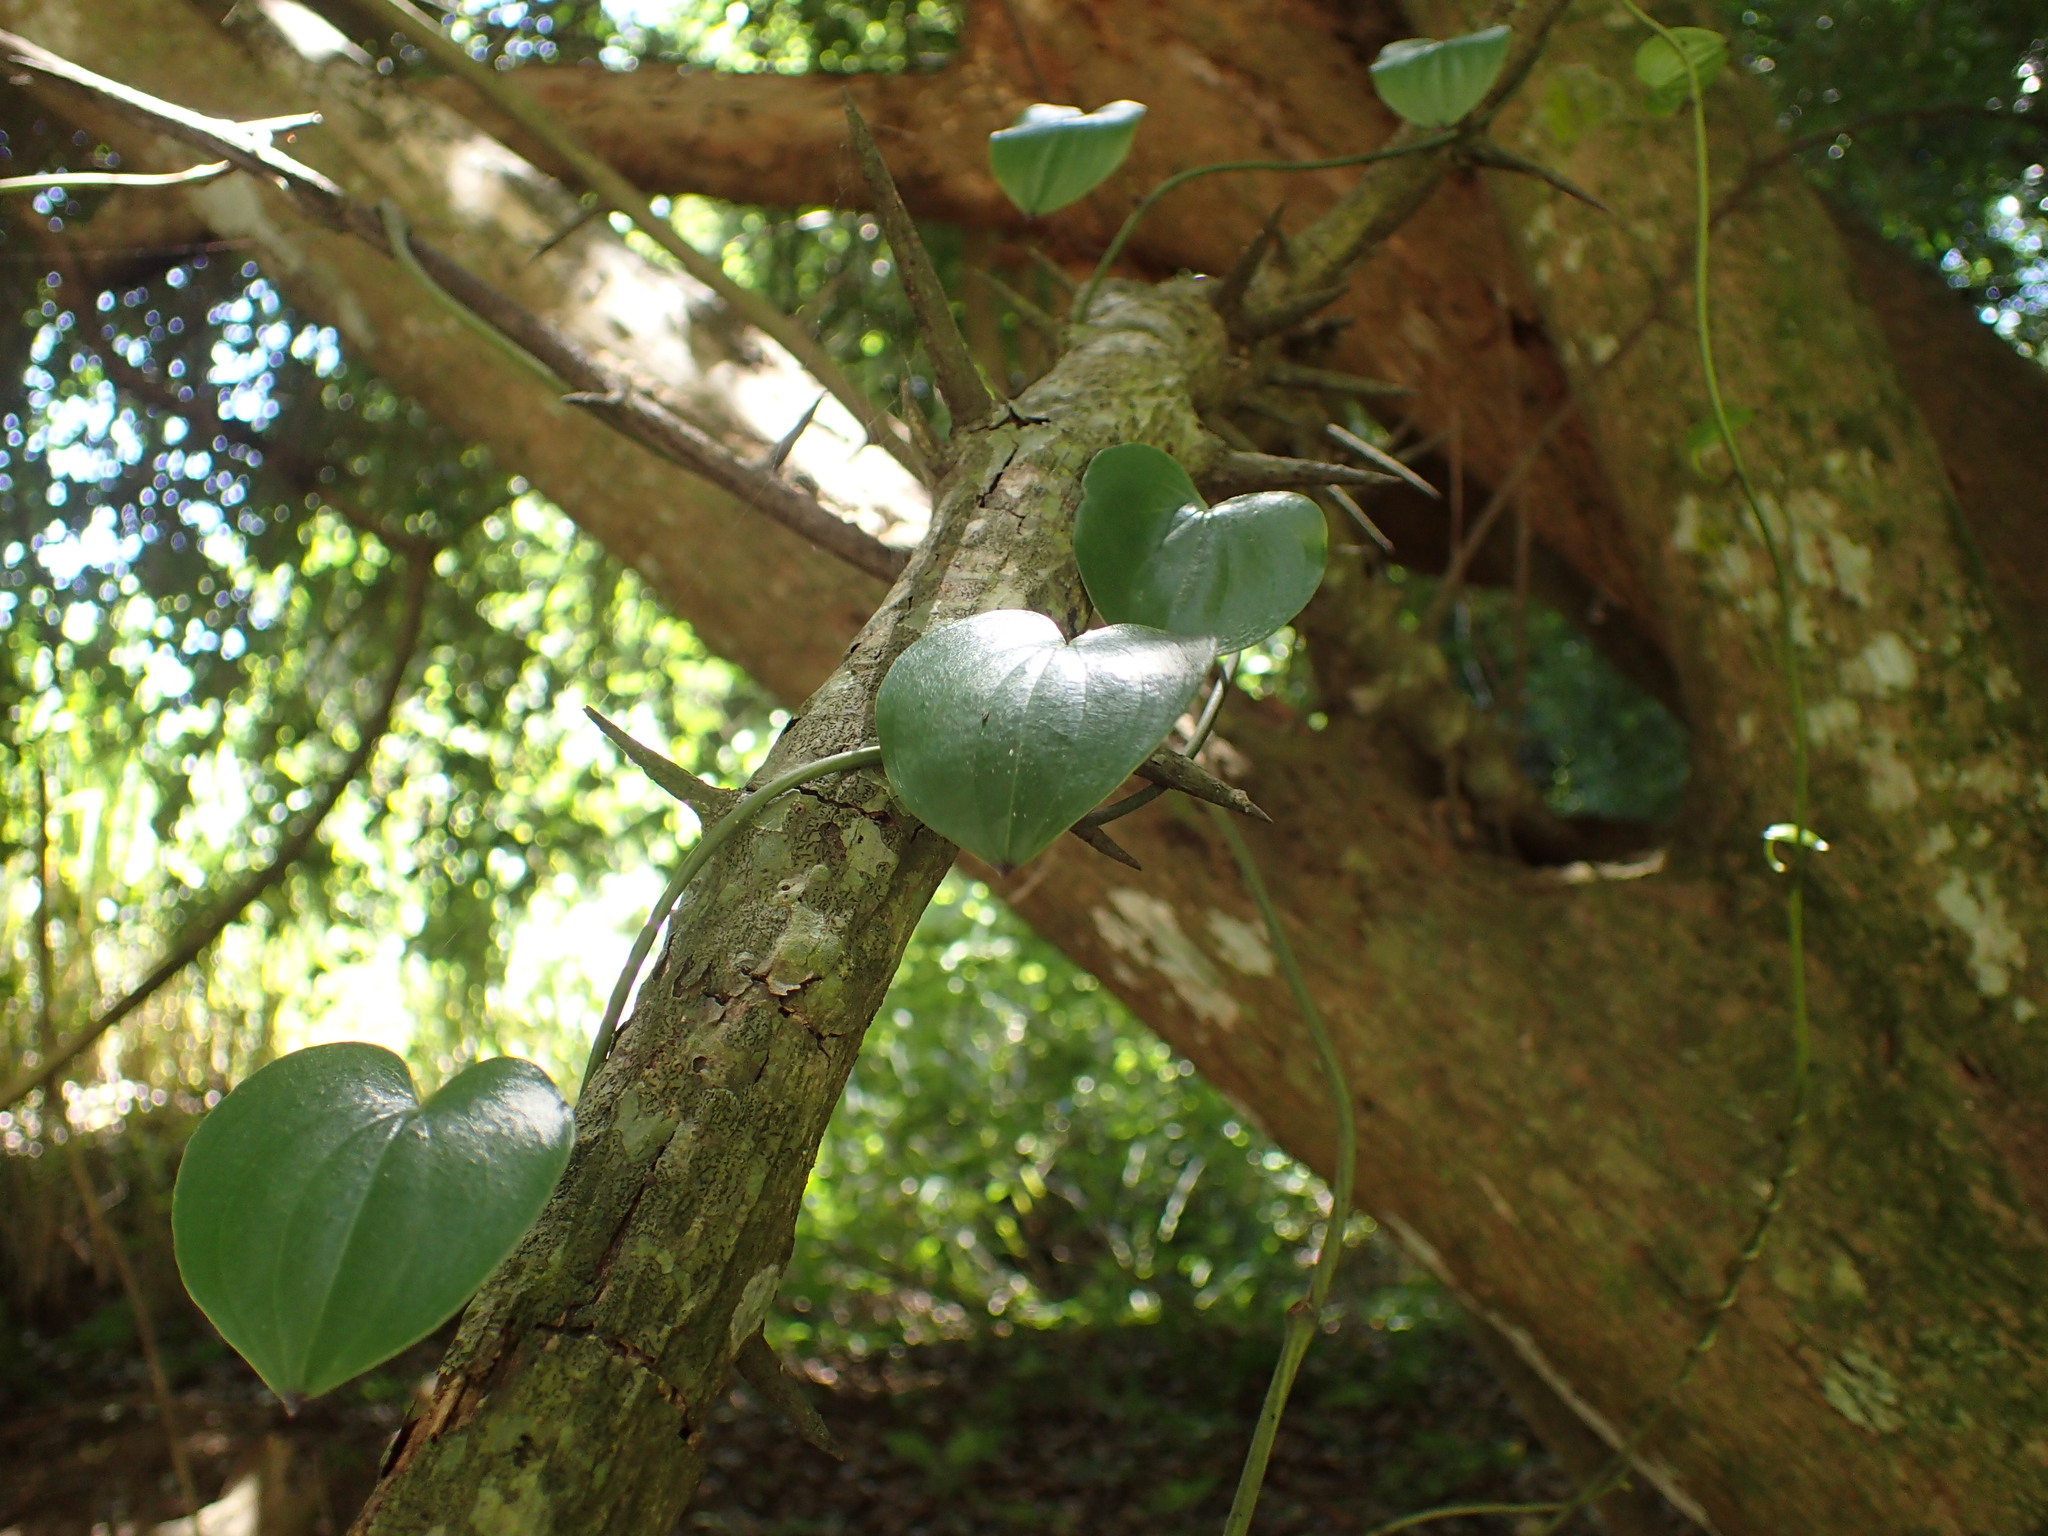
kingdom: Plantae
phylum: Tracheophyta
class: Liliopsida
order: Dioscoreales
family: Dioscoreaceae
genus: Dioscorea
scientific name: Dioscorea cotinifolia
